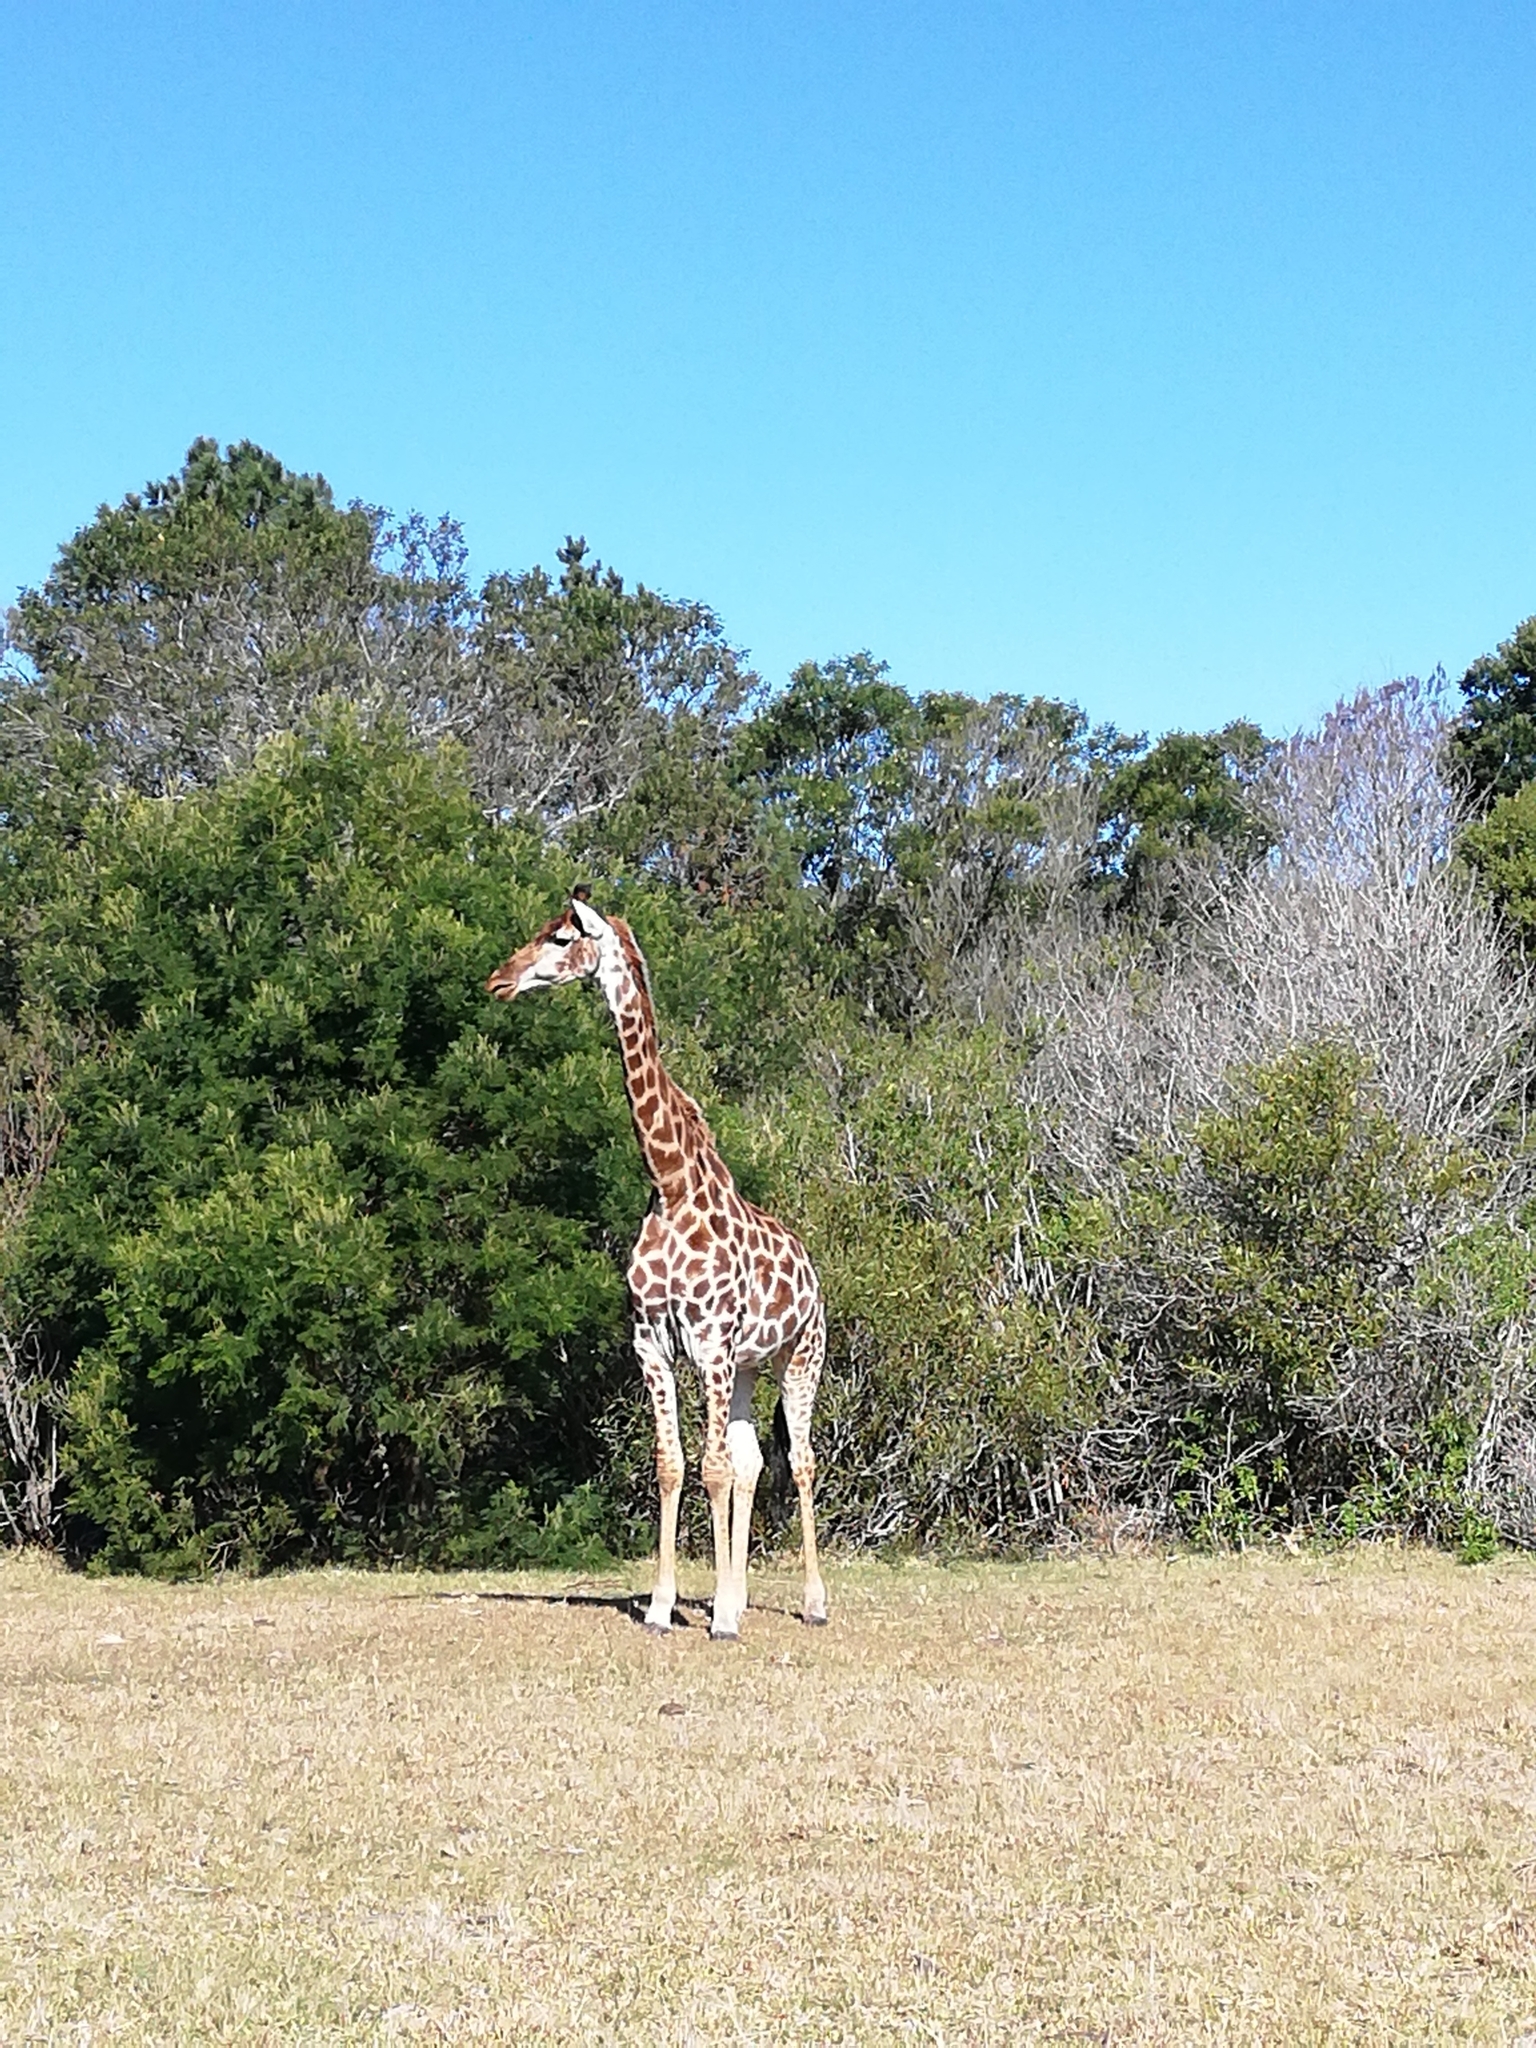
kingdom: Animalia
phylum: Chordata
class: Mammalia
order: Artiodactyla
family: Giraffidae
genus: Giraffa
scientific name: Giraffa giraffa
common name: Southern giraffe
